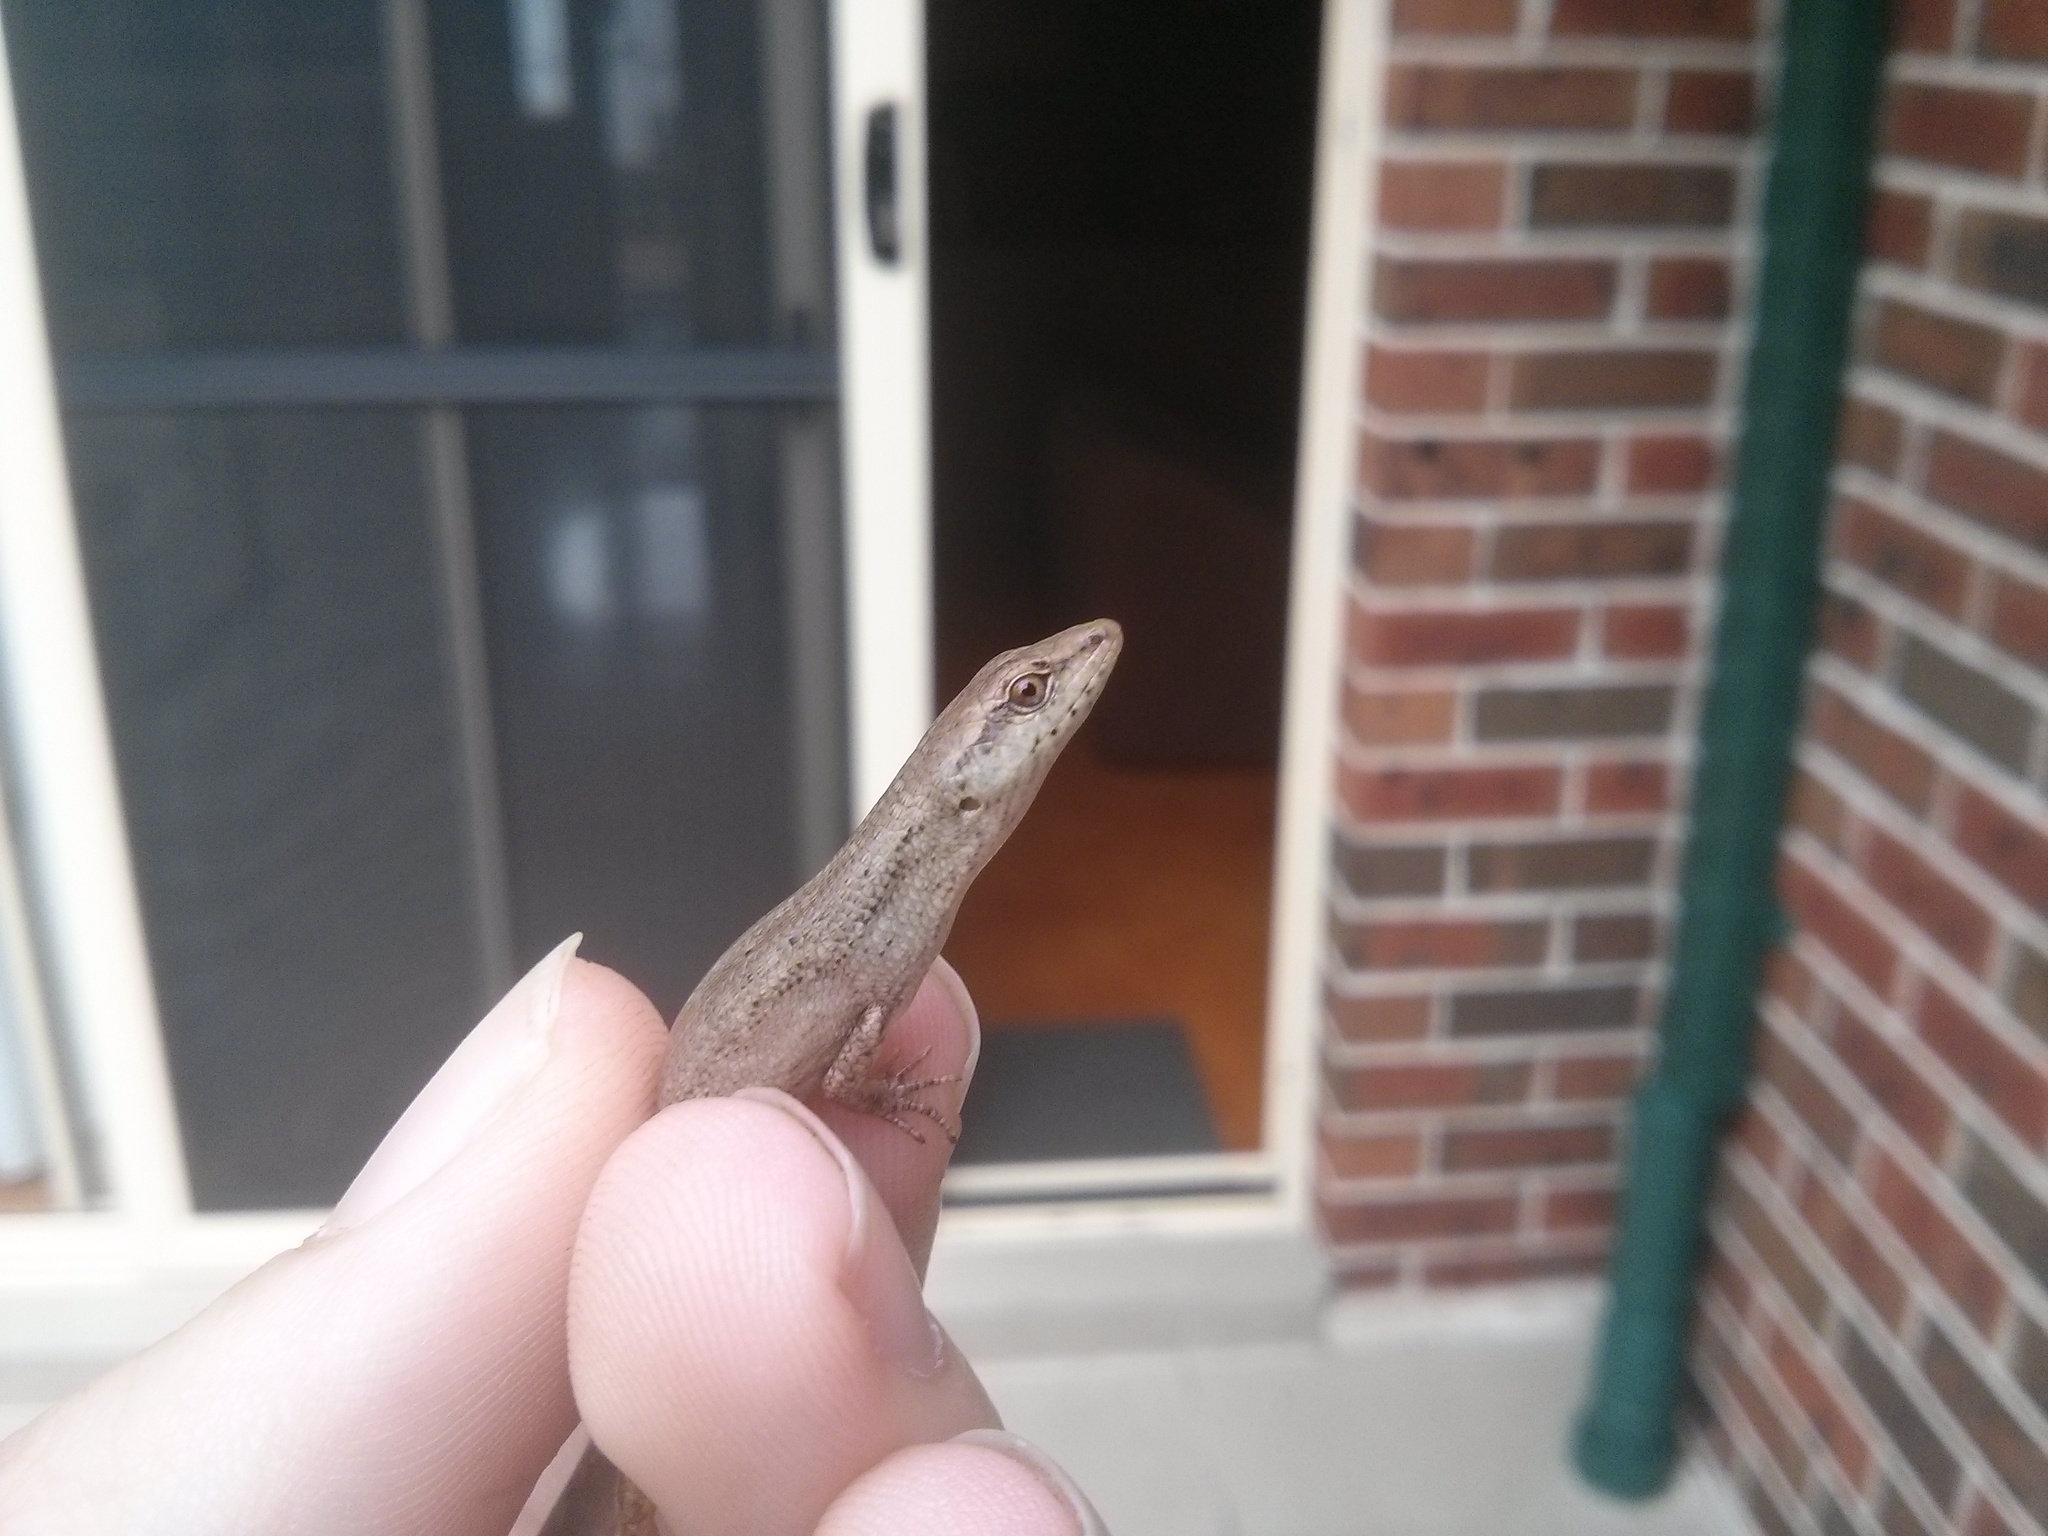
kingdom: Animalia
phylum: Chordata
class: Squamata
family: Scincidae
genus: Saproscincus
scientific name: Saproscincus spectabilis
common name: Gully shadeskink
